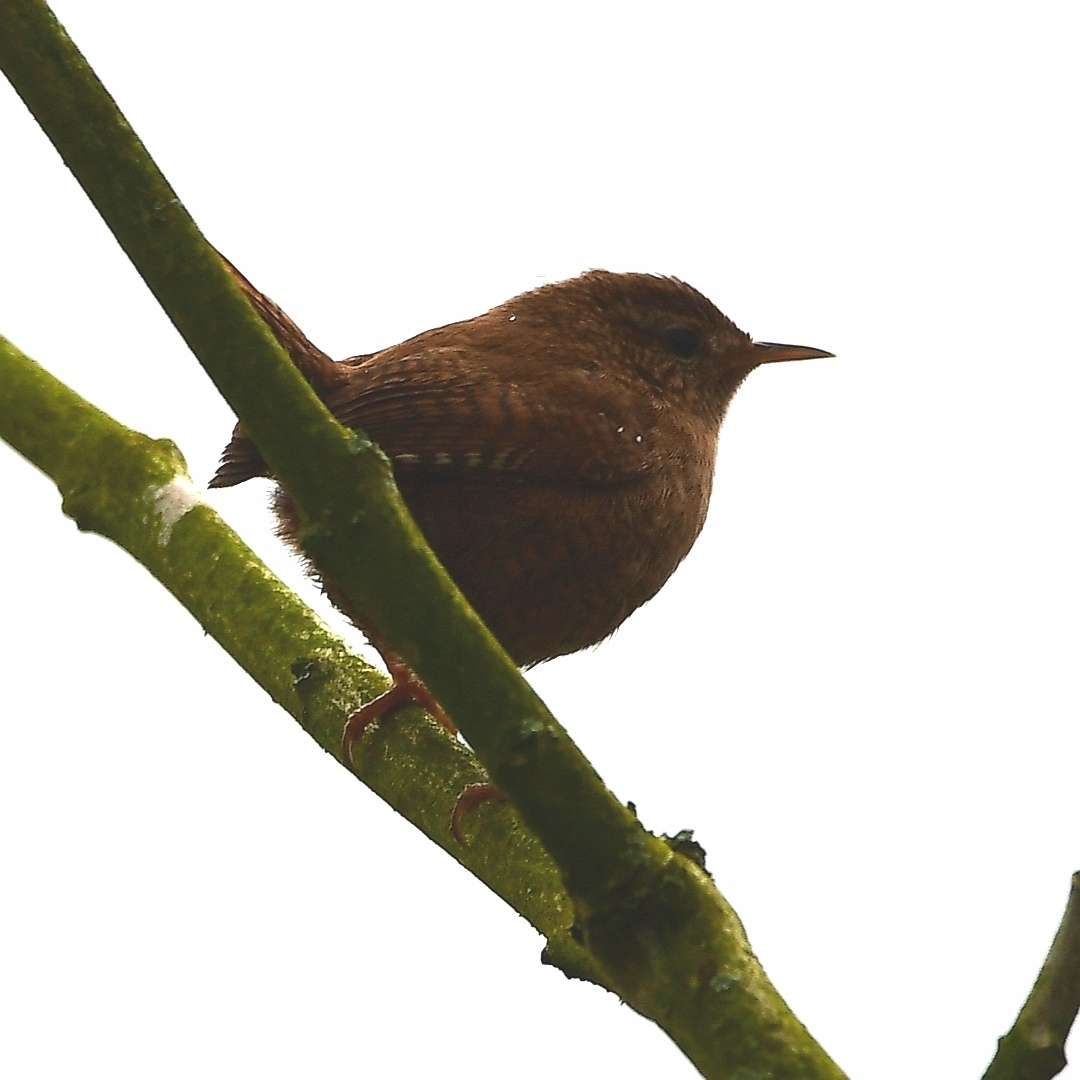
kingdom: Animalia
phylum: Chordata
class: Aves
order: Passeriformes
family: Troglodytidae
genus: Troglodytes
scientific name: Troglodytes troglodytes
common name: Eurasian wren
